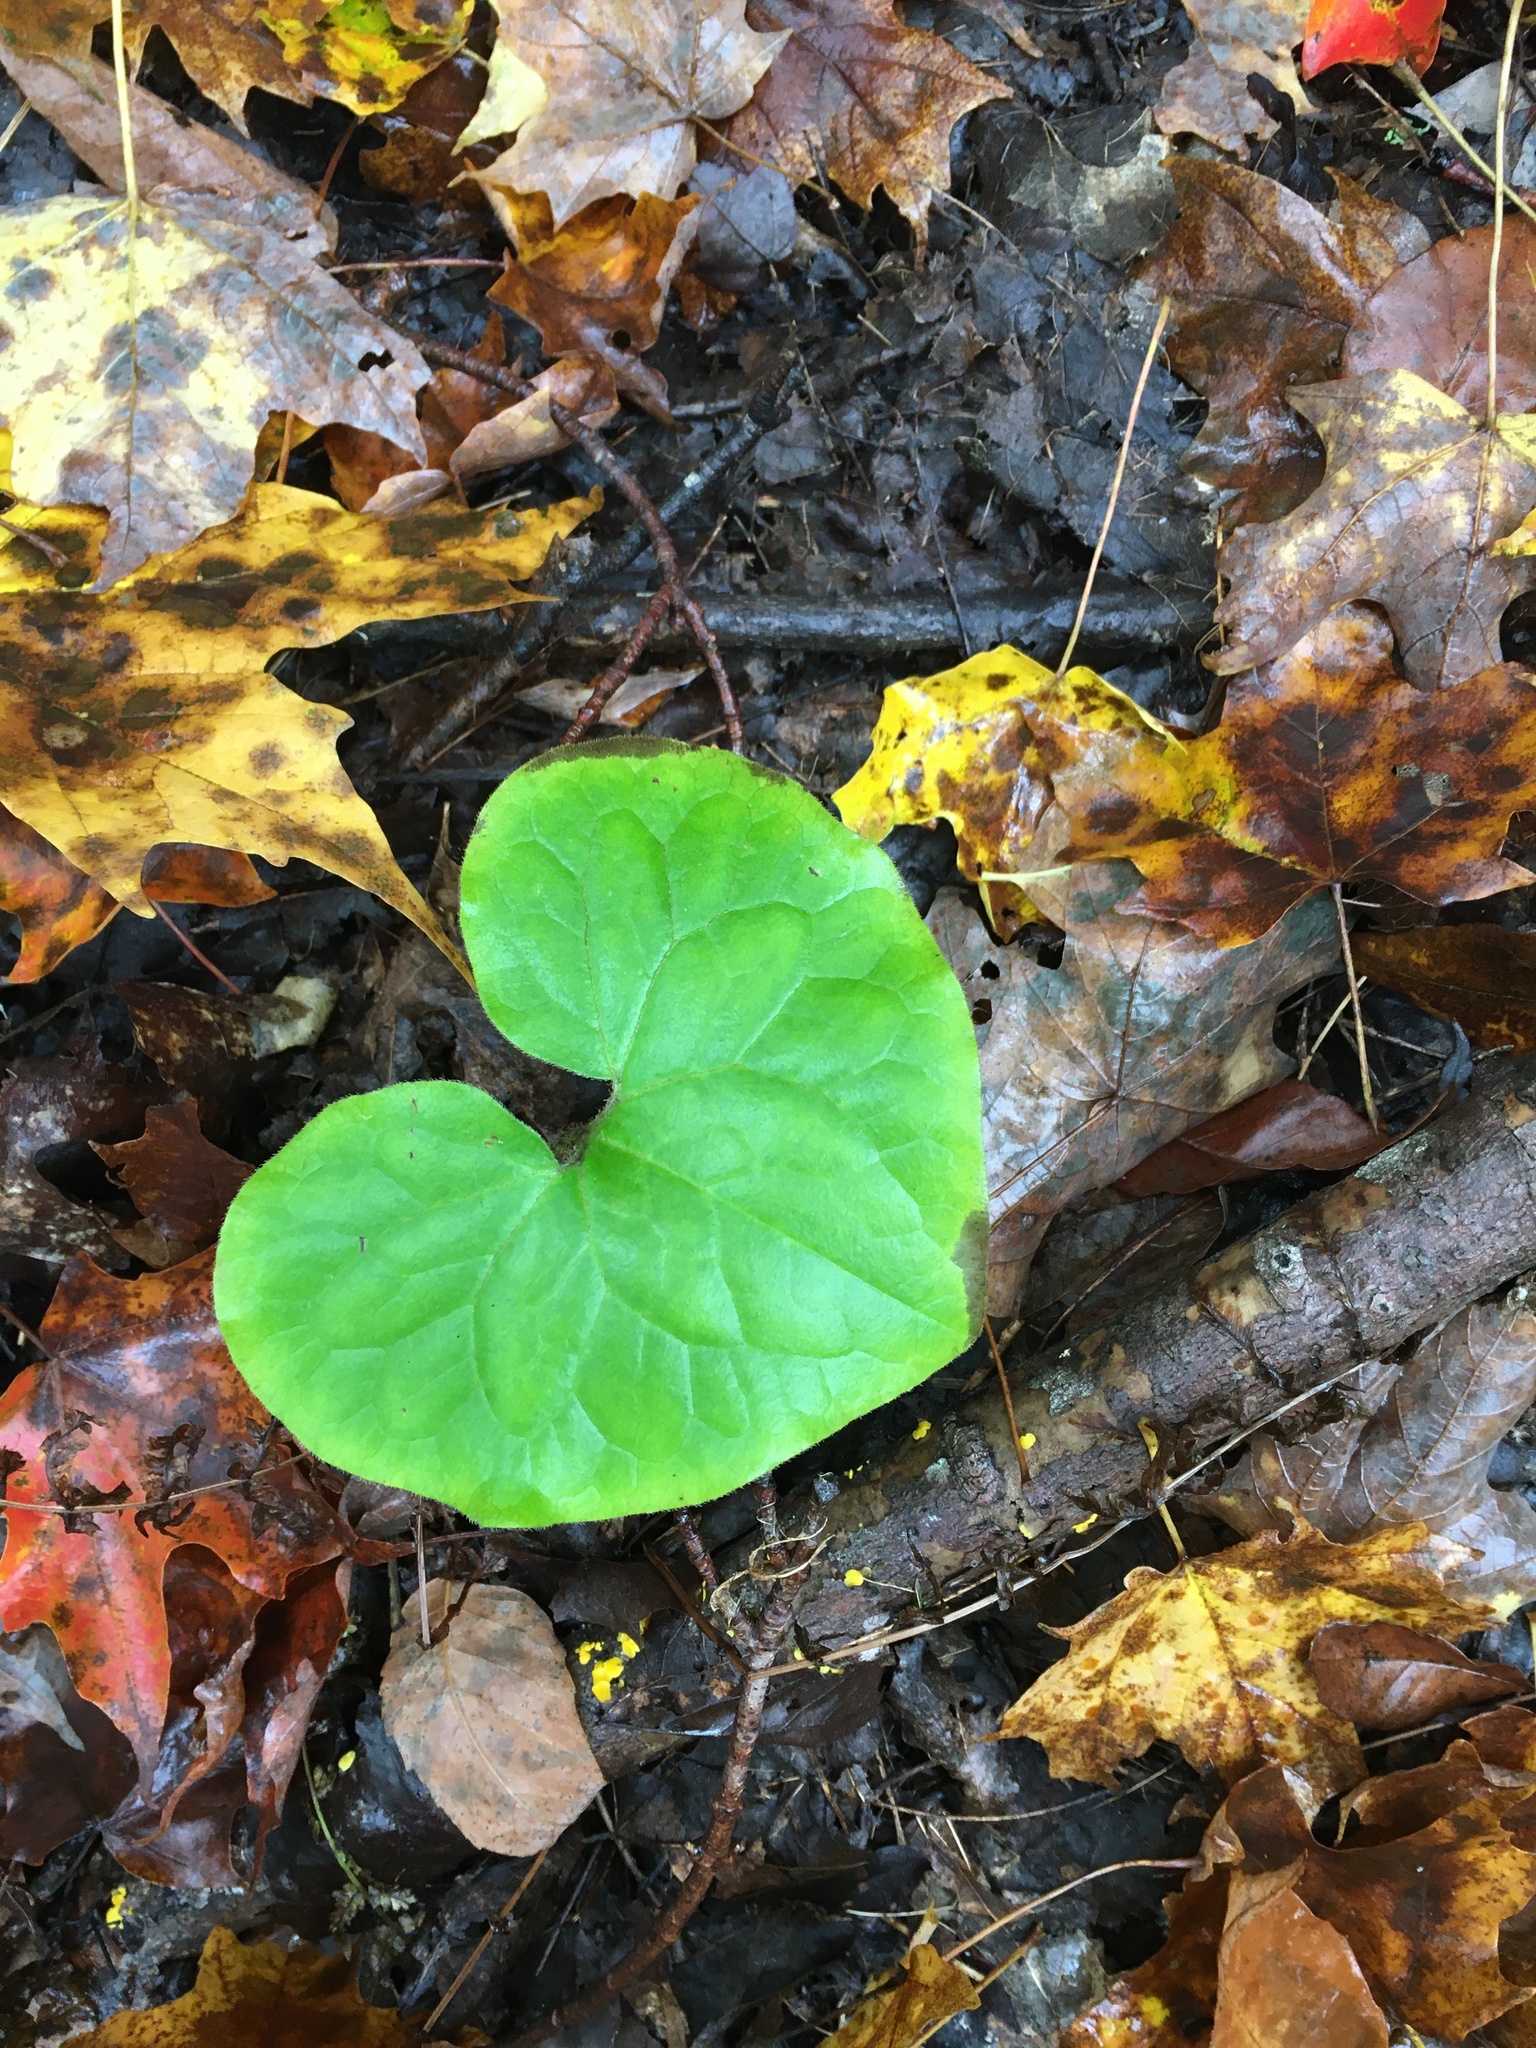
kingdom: Plantae
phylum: Tracheophyta
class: Magnoliopsida
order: Piperales
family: Aristolochiaceae
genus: Asarum
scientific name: Asarum canadense
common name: Wild ginger
